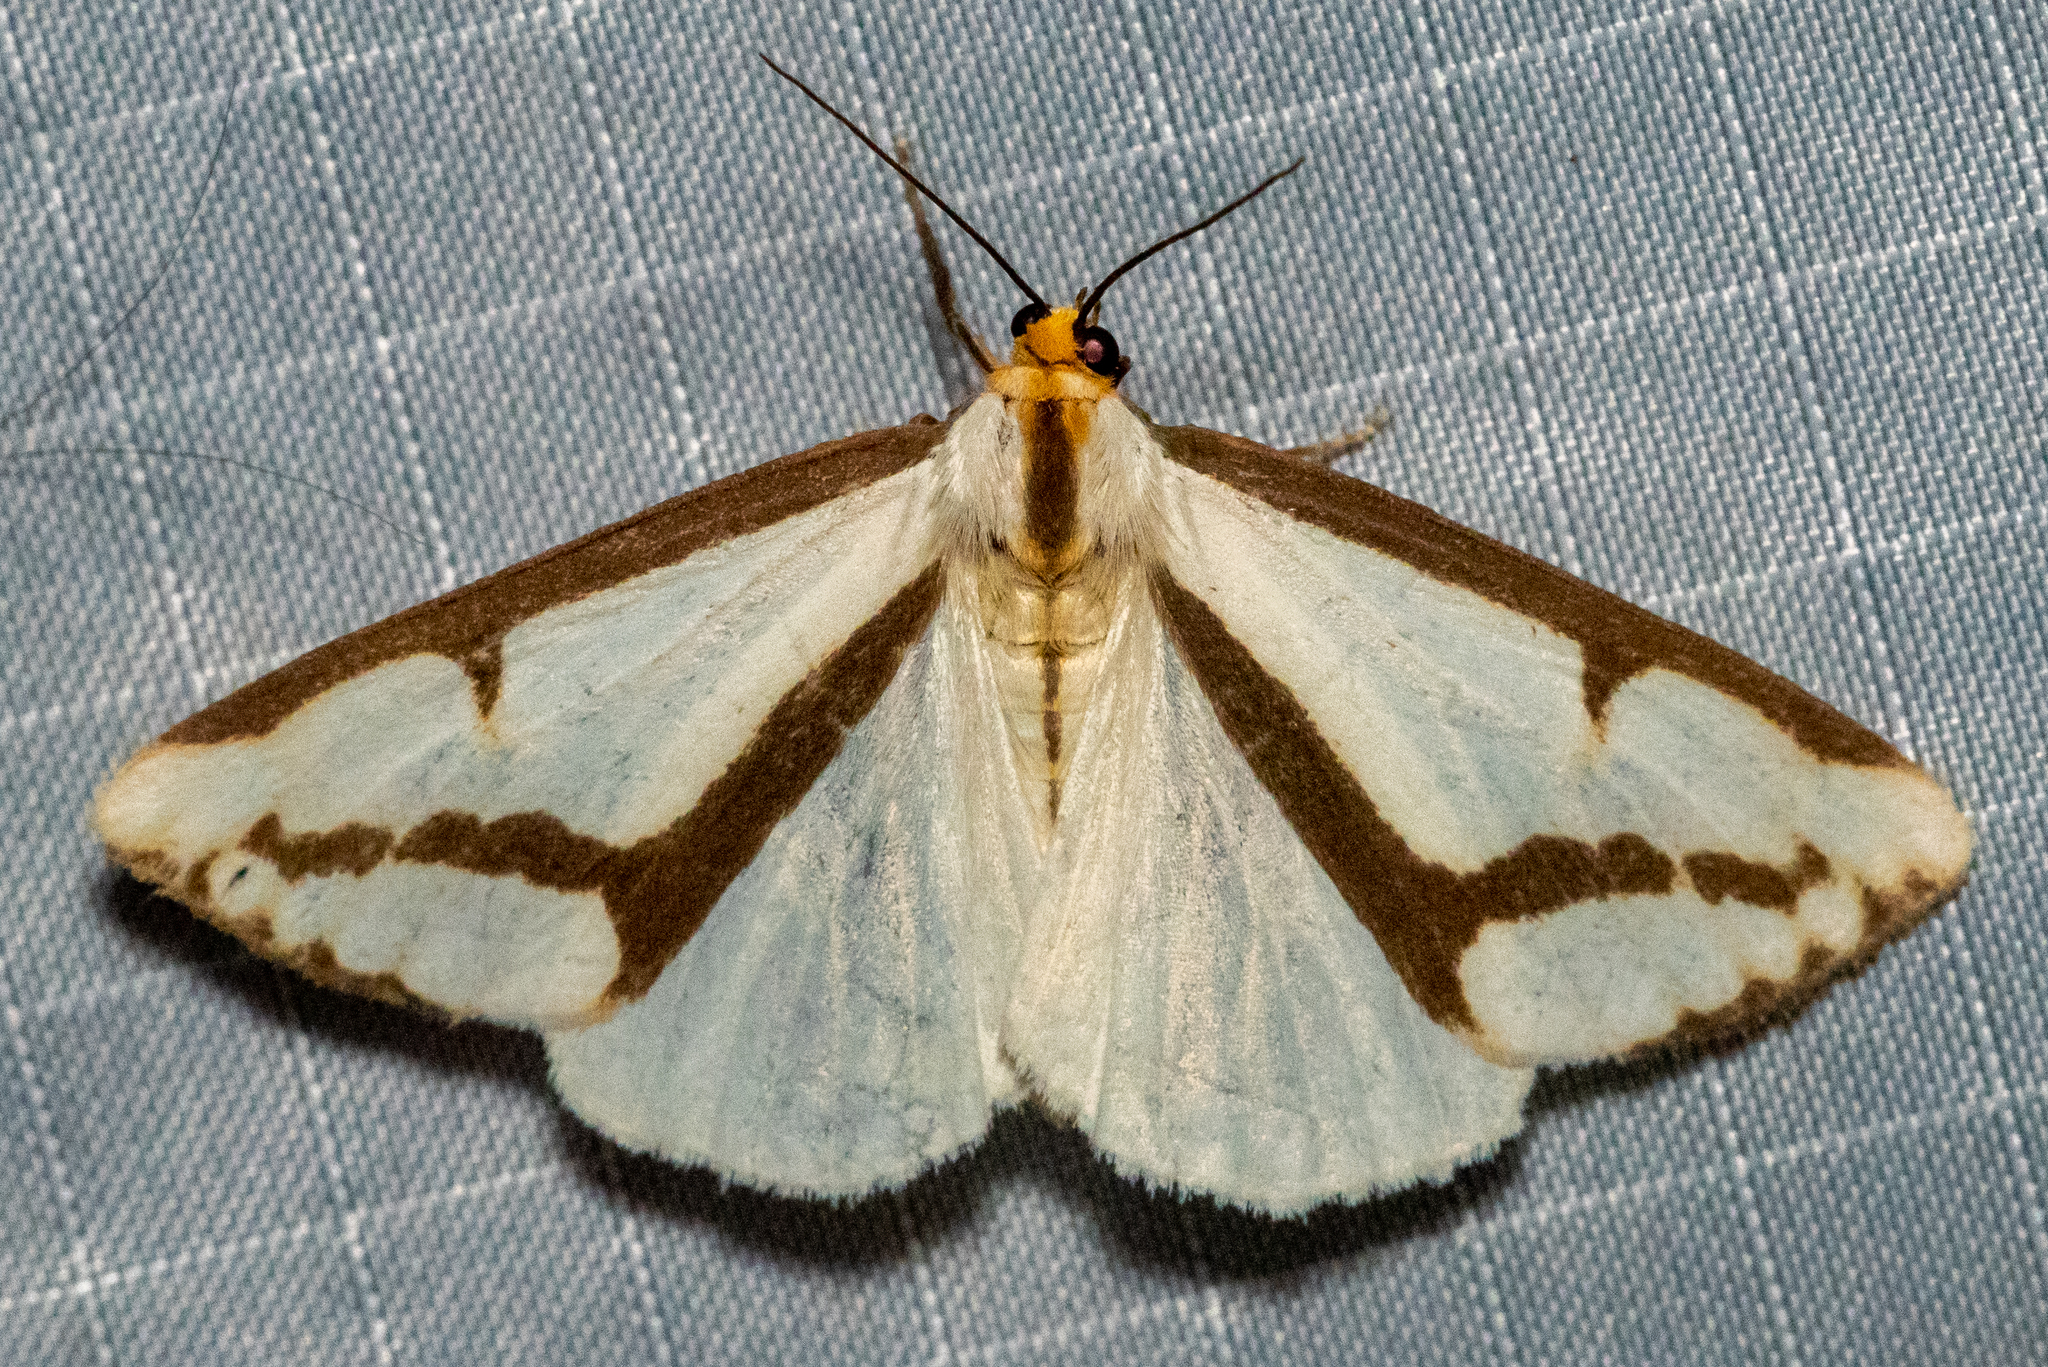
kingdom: Animalia
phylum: Arthropoda
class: Insecta
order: Lepidoptera
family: Erebidae
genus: Haploa
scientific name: Haploa lecontei
